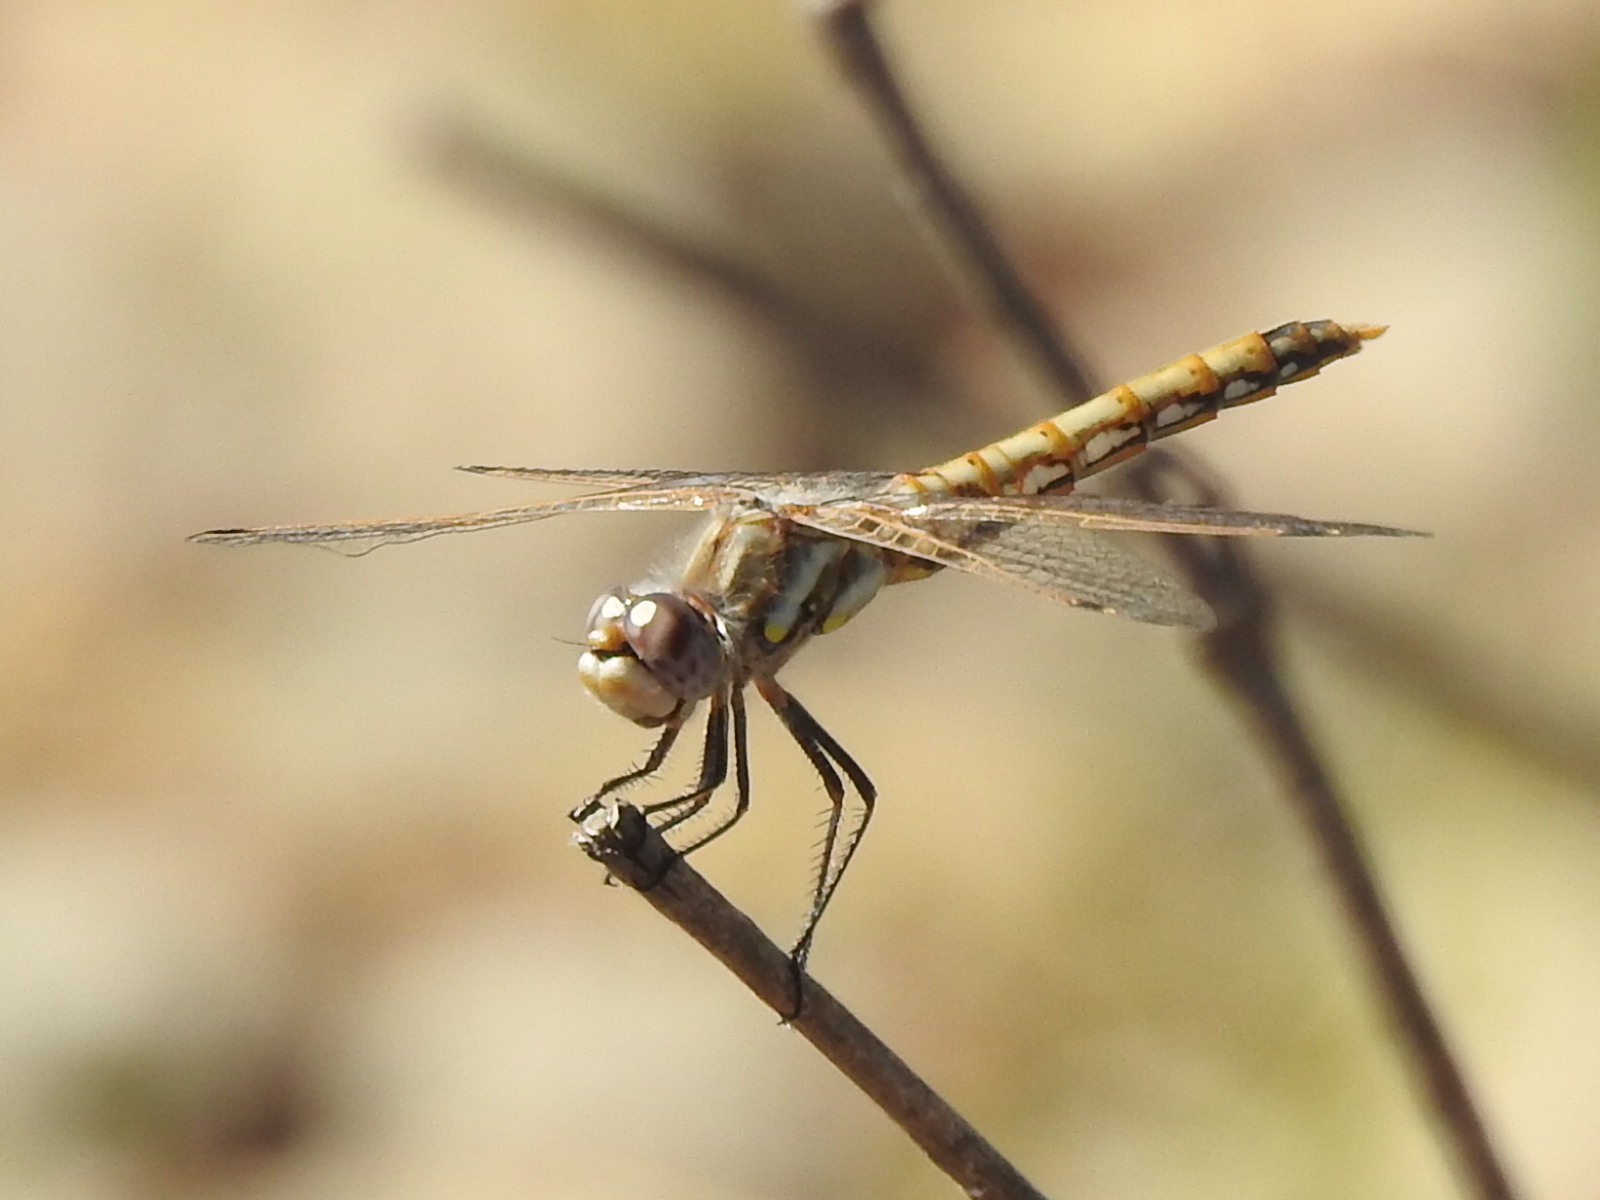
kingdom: Animalia
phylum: Arthropoda
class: Insecta
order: Odonata
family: Libellulidae
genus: Sympetrum
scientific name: Sympetrum corruptum
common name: Variegated meadowhawk
